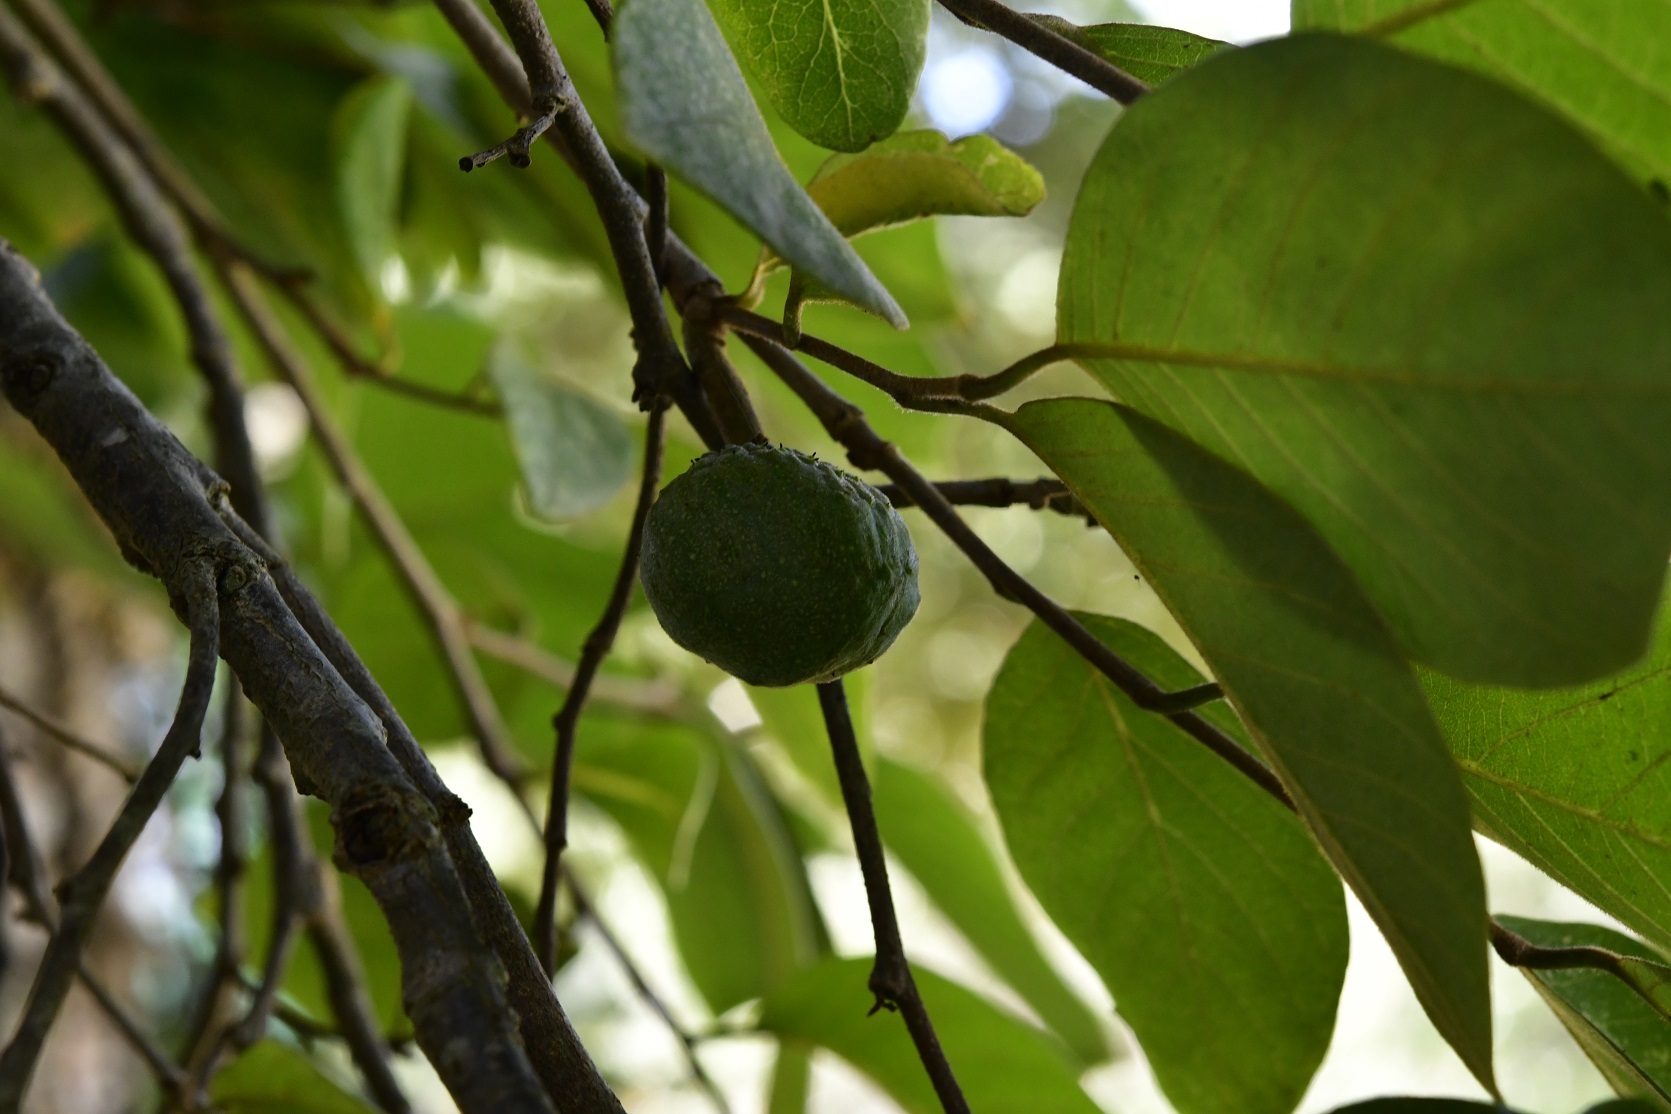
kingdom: Plantae
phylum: Tracheophyta
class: Magnoliopsida
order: Magnoliales
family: Annonaceae
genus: Annona
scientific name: Annona cherimola
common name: Cherimoya
